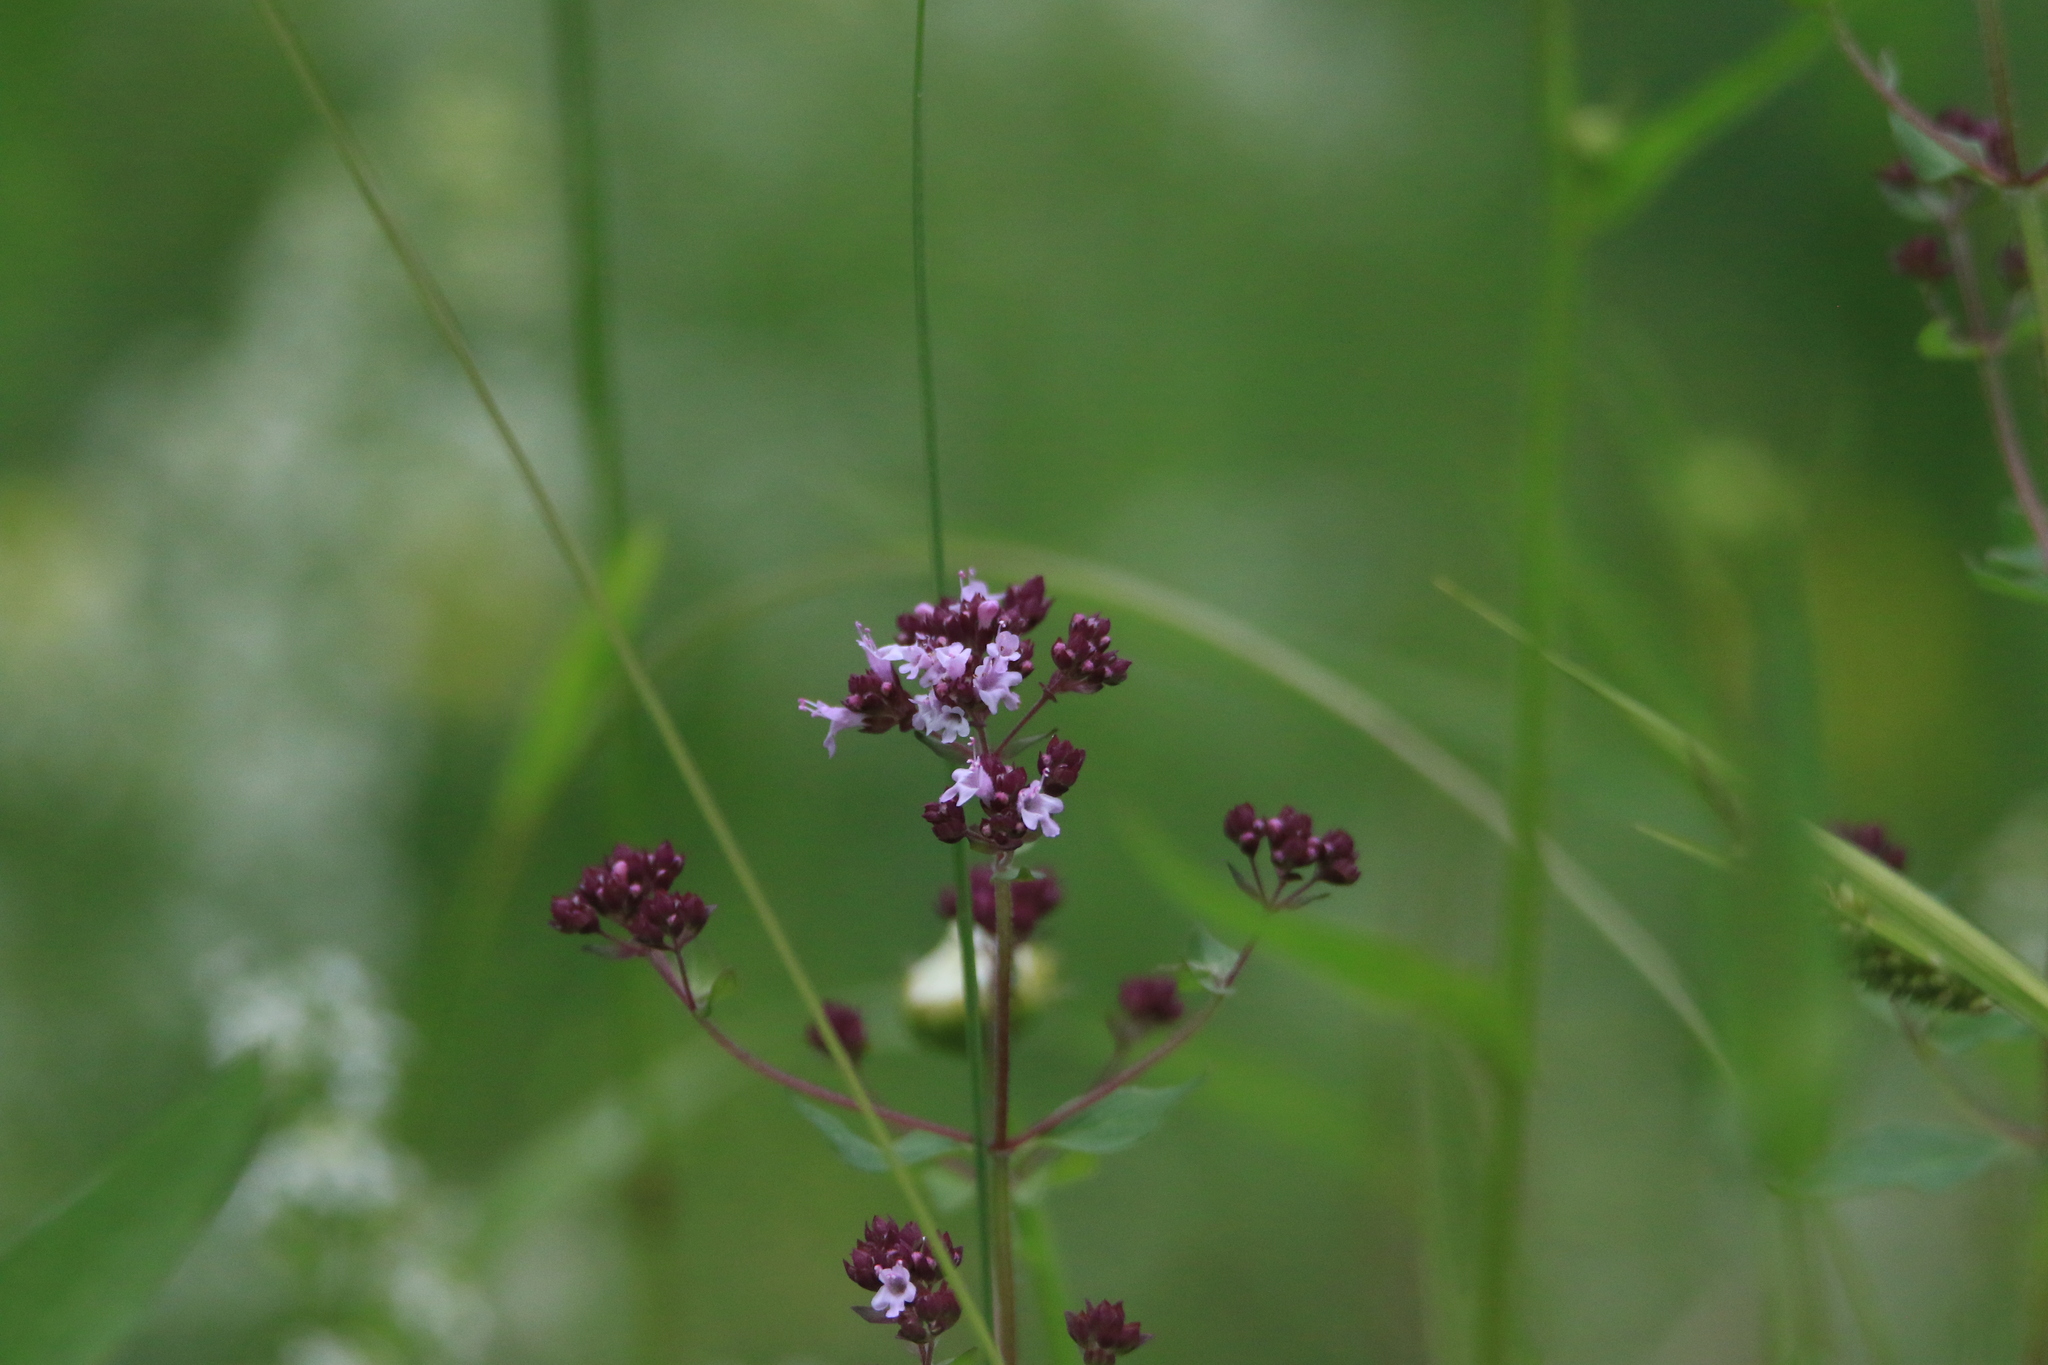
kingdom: Plantae
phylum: Tracheophyta
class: Magnoliopsida
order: Lamiales
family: Lamiaceae
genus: Origanum
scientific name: Origanum vulgare
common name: Wild marjoram
